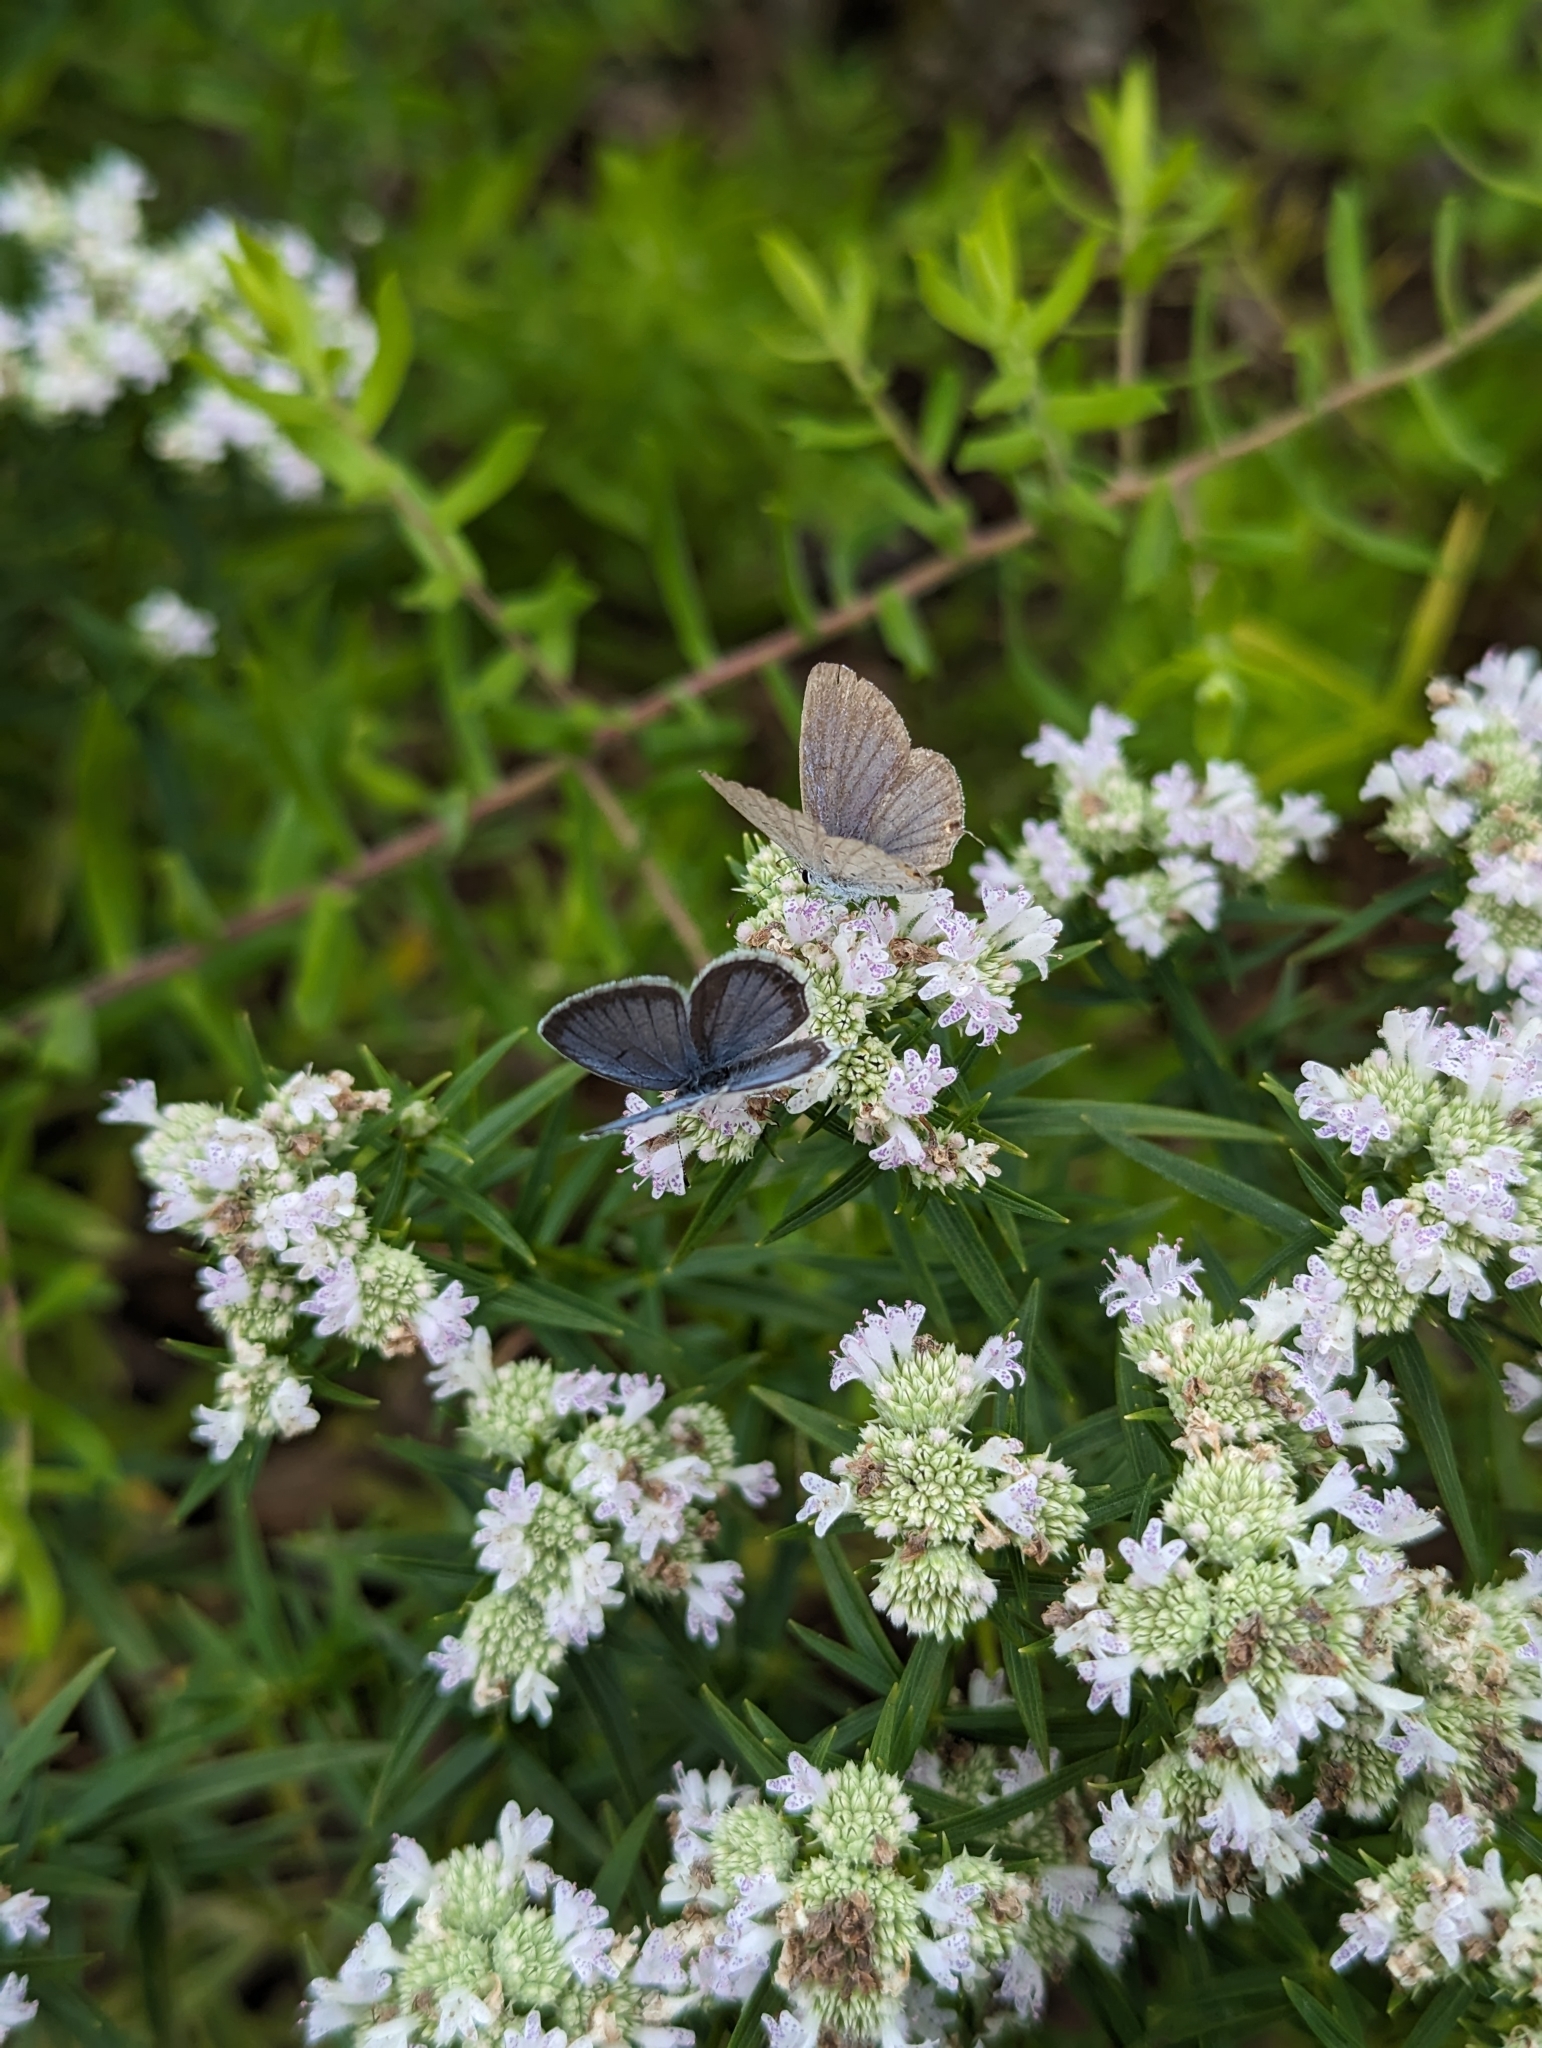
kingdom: Animalia
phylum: Arthropoda
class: Insecta
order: Lepidoptera
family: Lycaenidae
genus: Elkalyce
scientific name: Elkalyce comyntas
